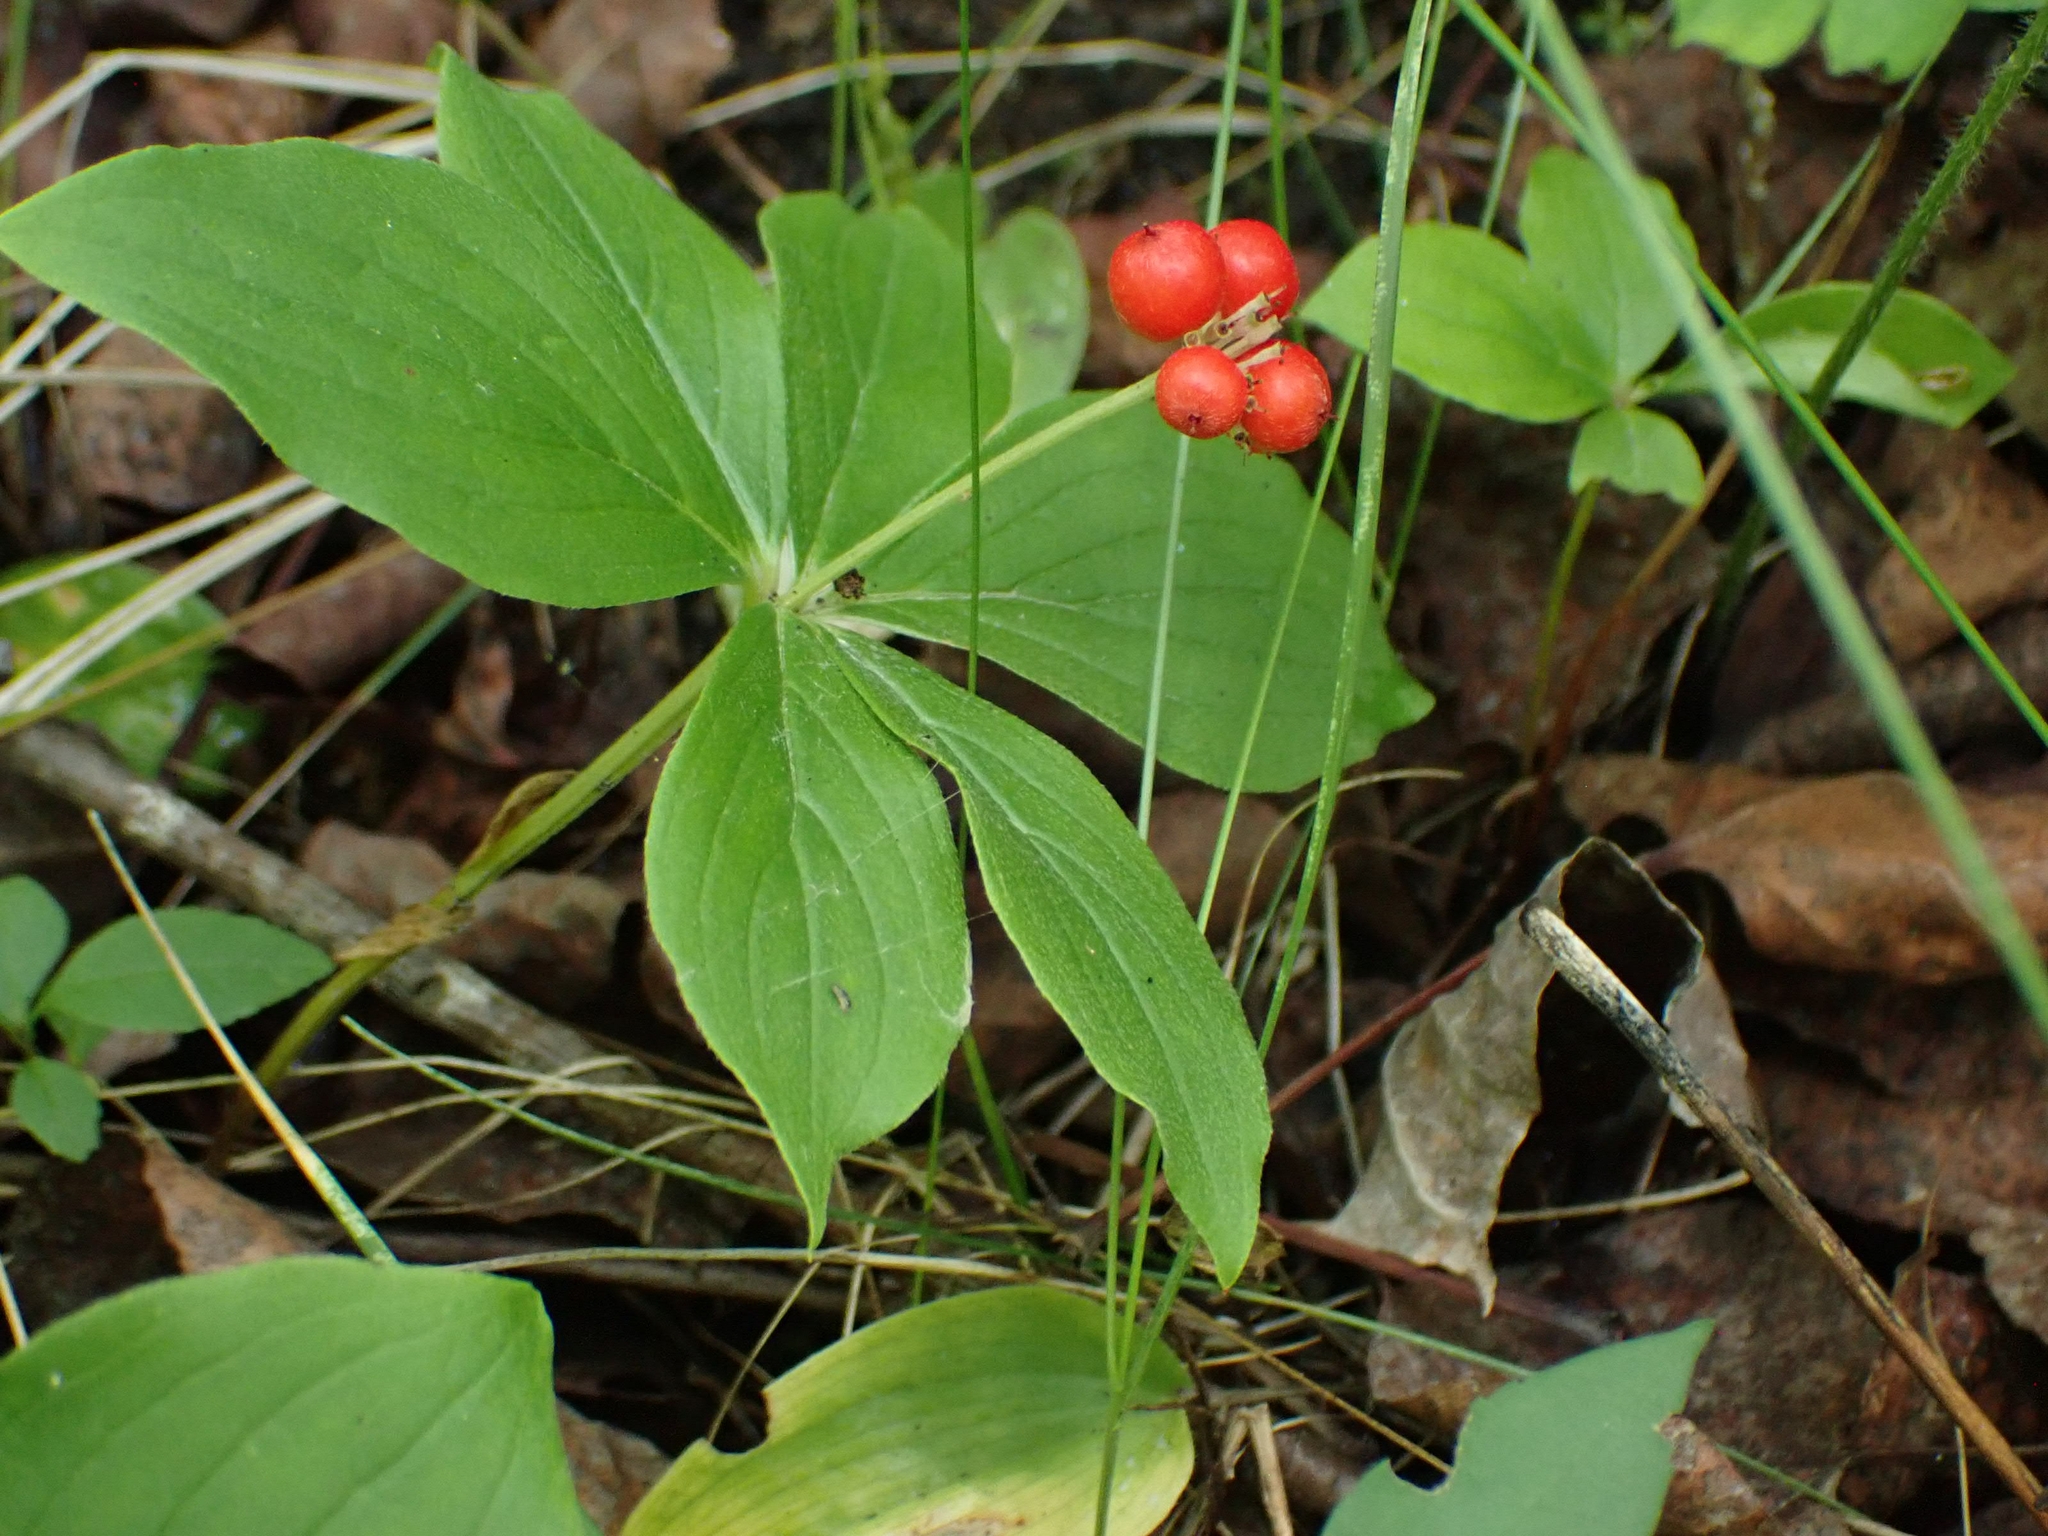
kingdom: Plantae
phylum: Tracheophyta
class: Magnoliopsida
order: Cornales
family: Cornaceae
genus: Cornus
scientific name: Cornus canadensis
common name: Creeping dogwood
